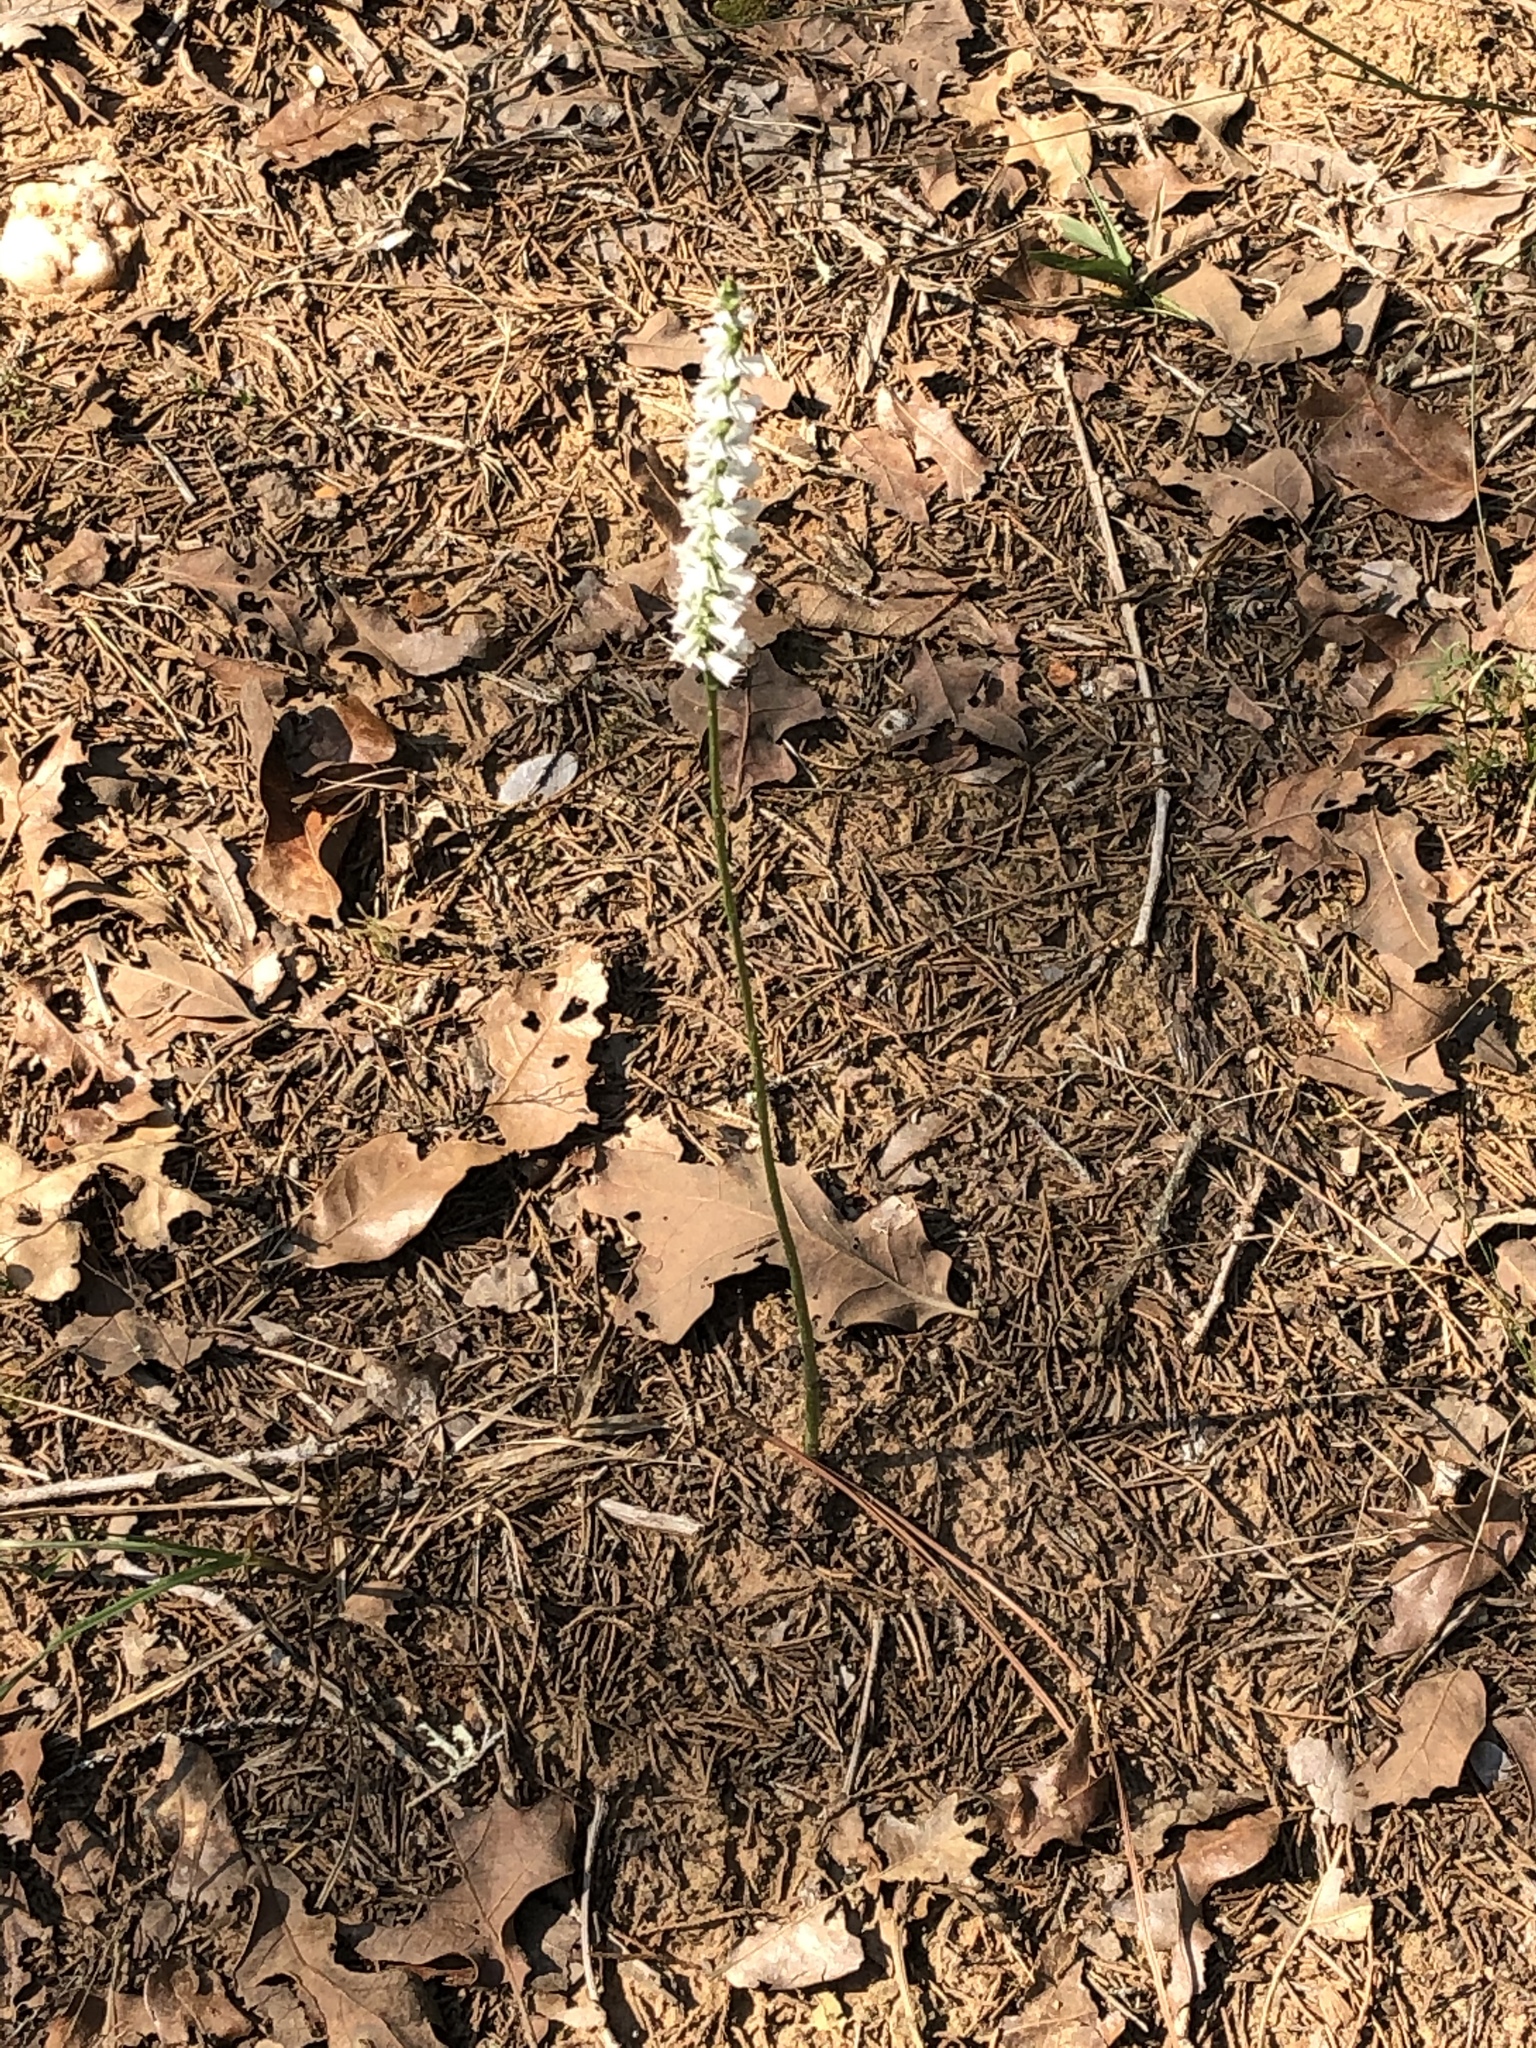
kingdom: Plantae
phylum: Tracheophyta
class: Liliopsida
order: Asparagales
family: Orchidaceae
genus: Spiranthes
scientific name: Spiranthes lacera
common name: Northern slender ladies'-tresses
